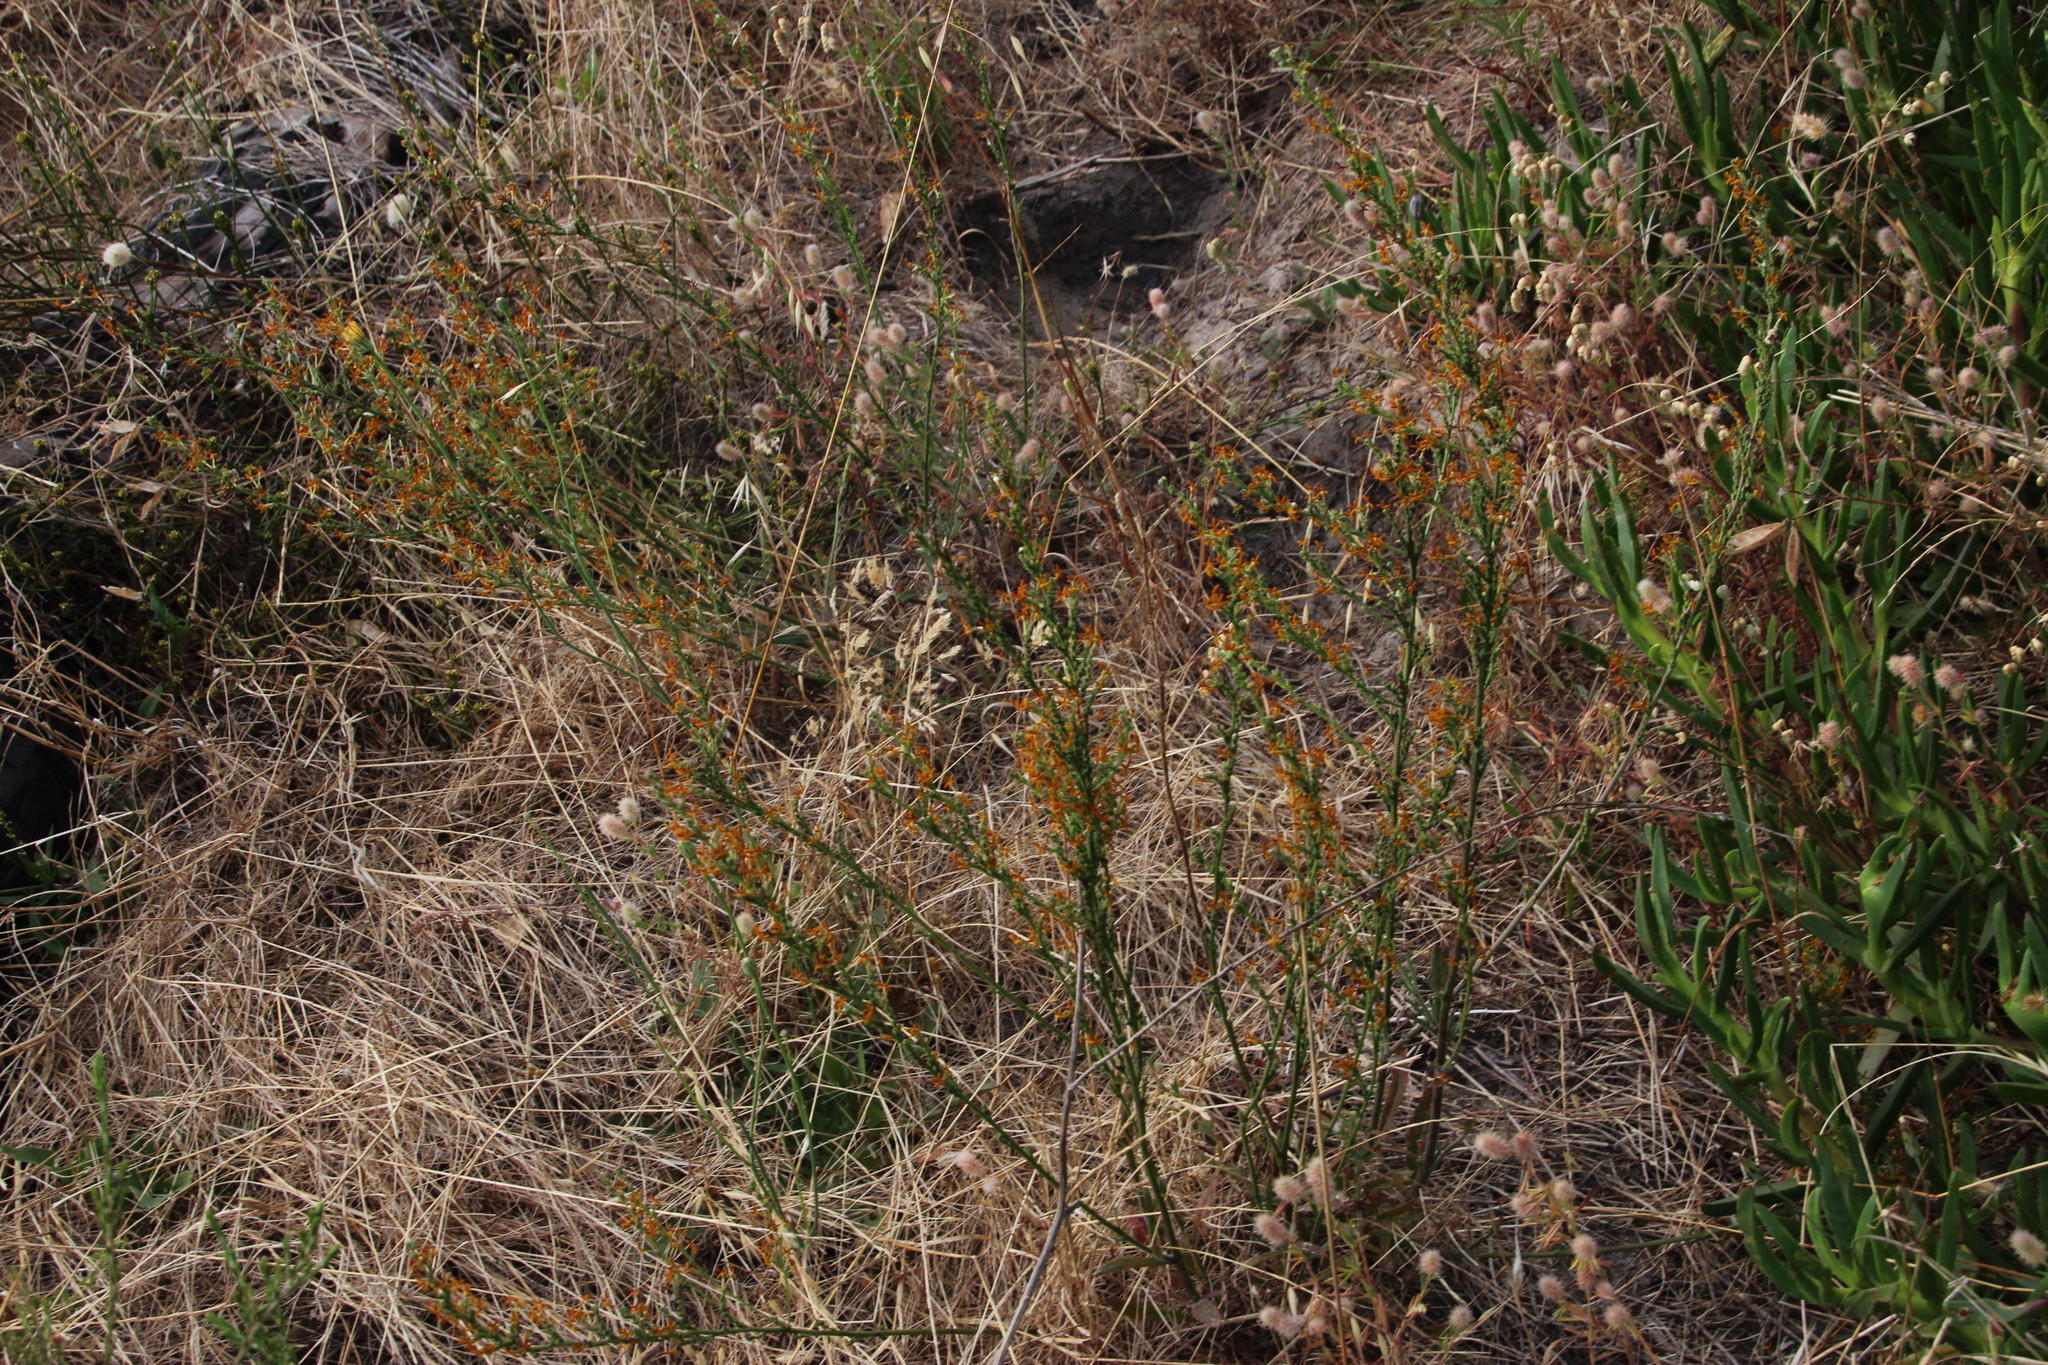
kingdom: Plantae
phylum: Tracheophyta
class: Magnoliopsida
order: Lamiales
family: Scrophulariaceae
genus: Manulea
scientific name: Manulea rubra
